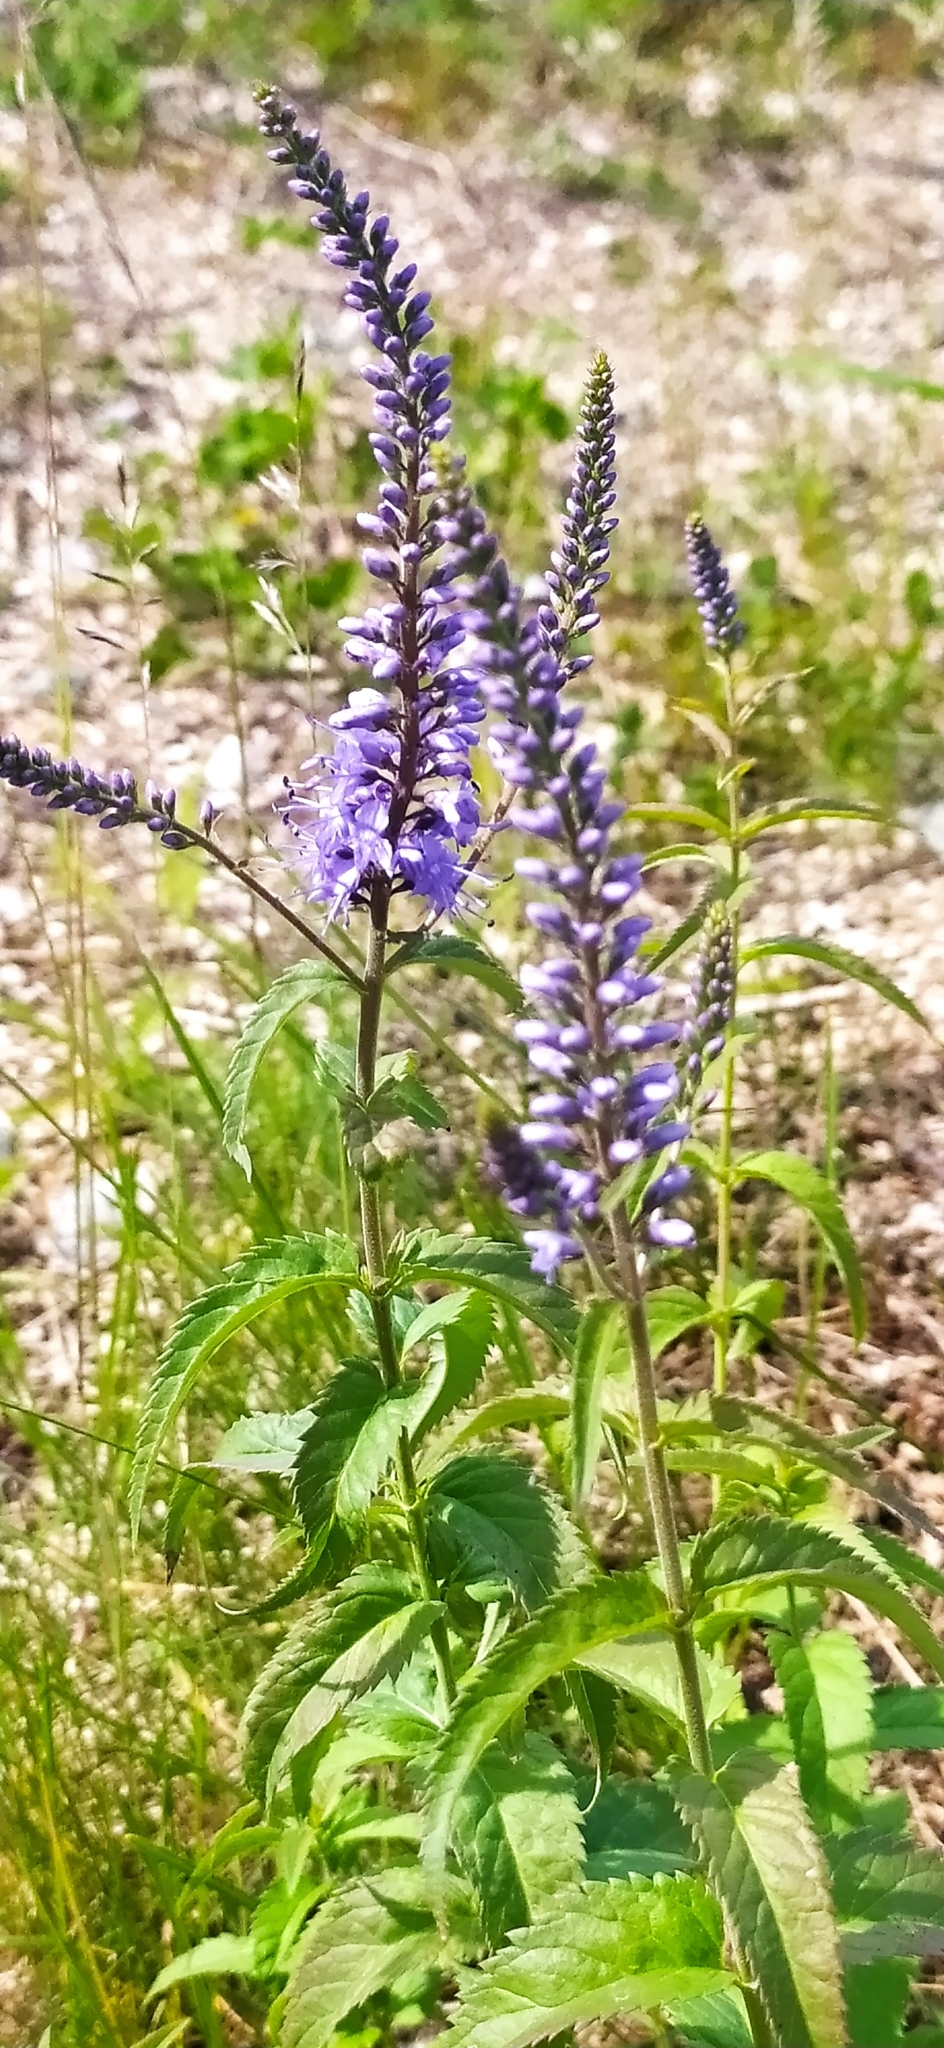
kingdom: Plantae
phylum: Tracheophyta
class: Magnoliopsida
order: Lamiales
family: Plantaginaceae
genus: Veronica
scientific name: Veronica longifolia
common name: Garden speedwell
